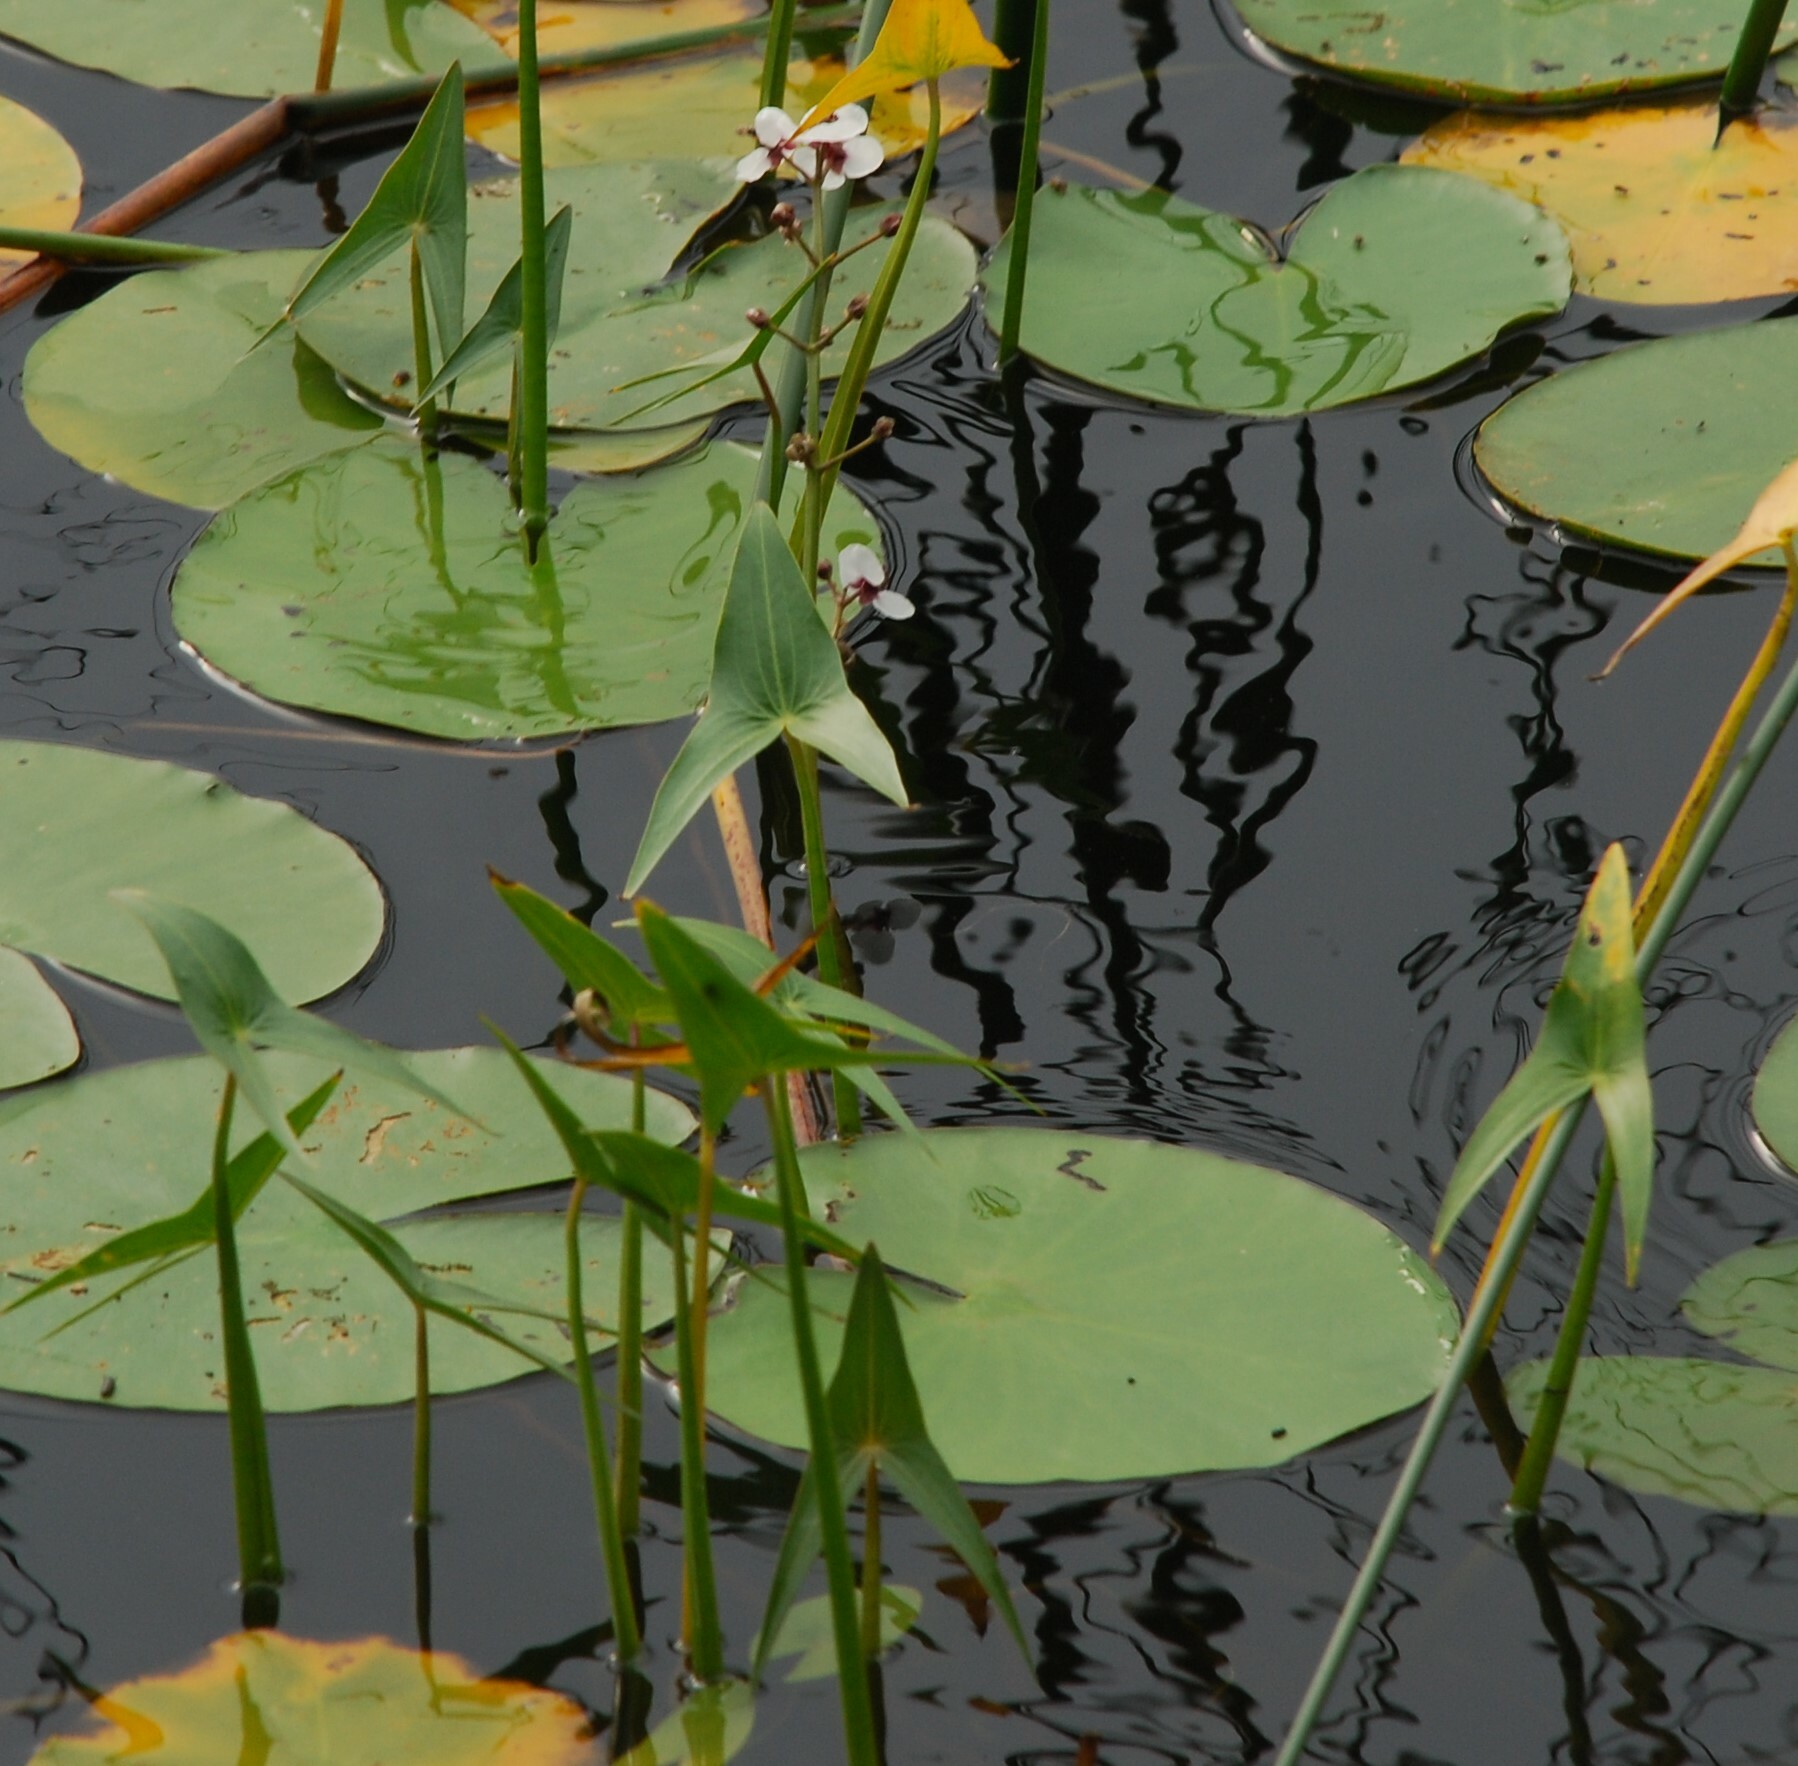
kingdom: Plantae
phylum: Tracheophyta
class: Liliopsida
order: Alismatales
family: Alismataceae
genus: Sagittaria
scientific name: Sagittaria sagittifolia
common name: Arrowhead
